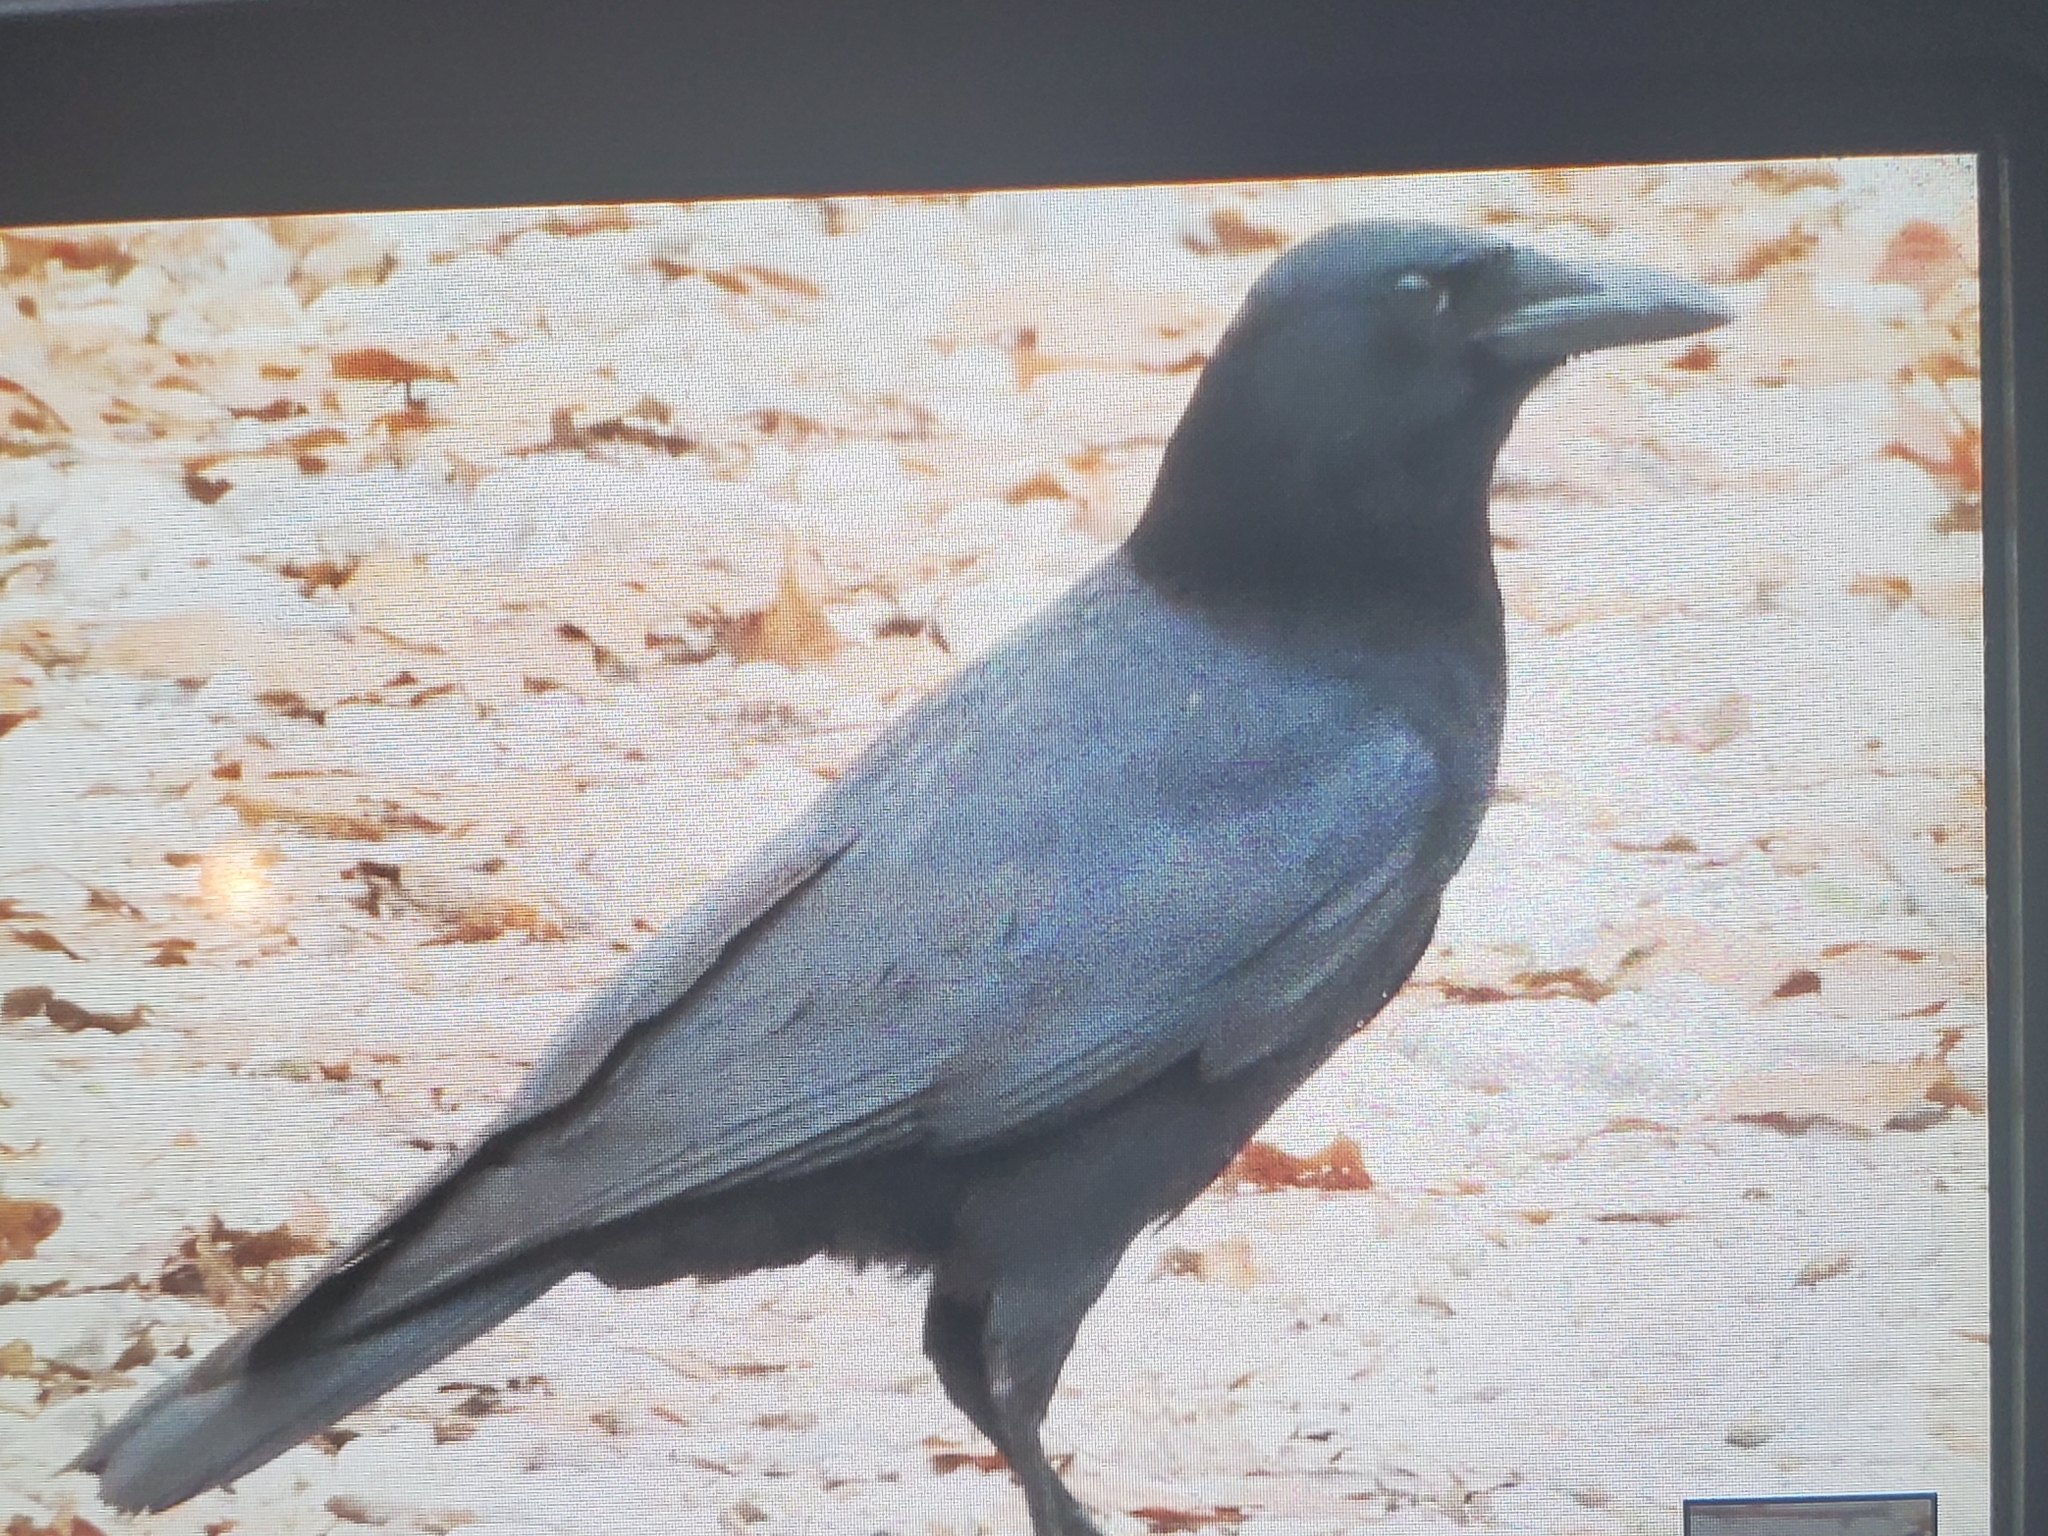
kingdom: Animalia
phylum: Chordata
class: Aves
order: Passeriformes
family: Corvidae
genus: Corvus
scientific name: Corvus brachyrhynchos
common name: American crow
